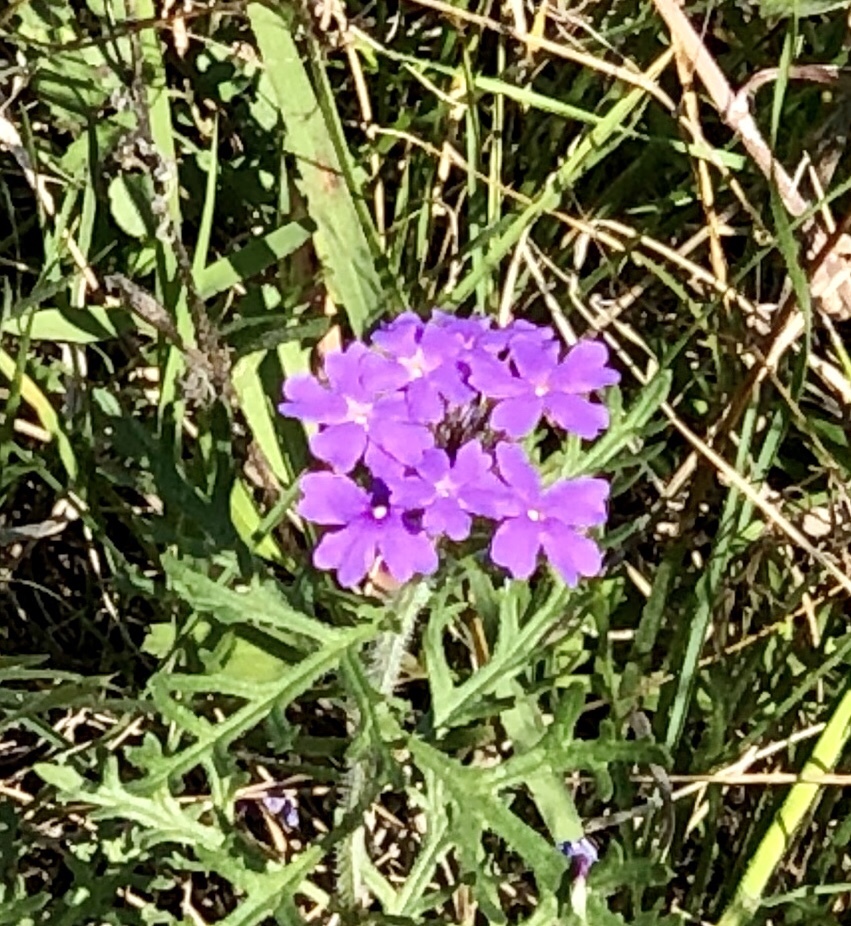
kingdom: Plantae
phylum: Tracheophyta
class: Magnoliopsida
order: Lamiales
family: Verbenaceae
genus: Verbena
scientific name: Verbena bipinnatifida
